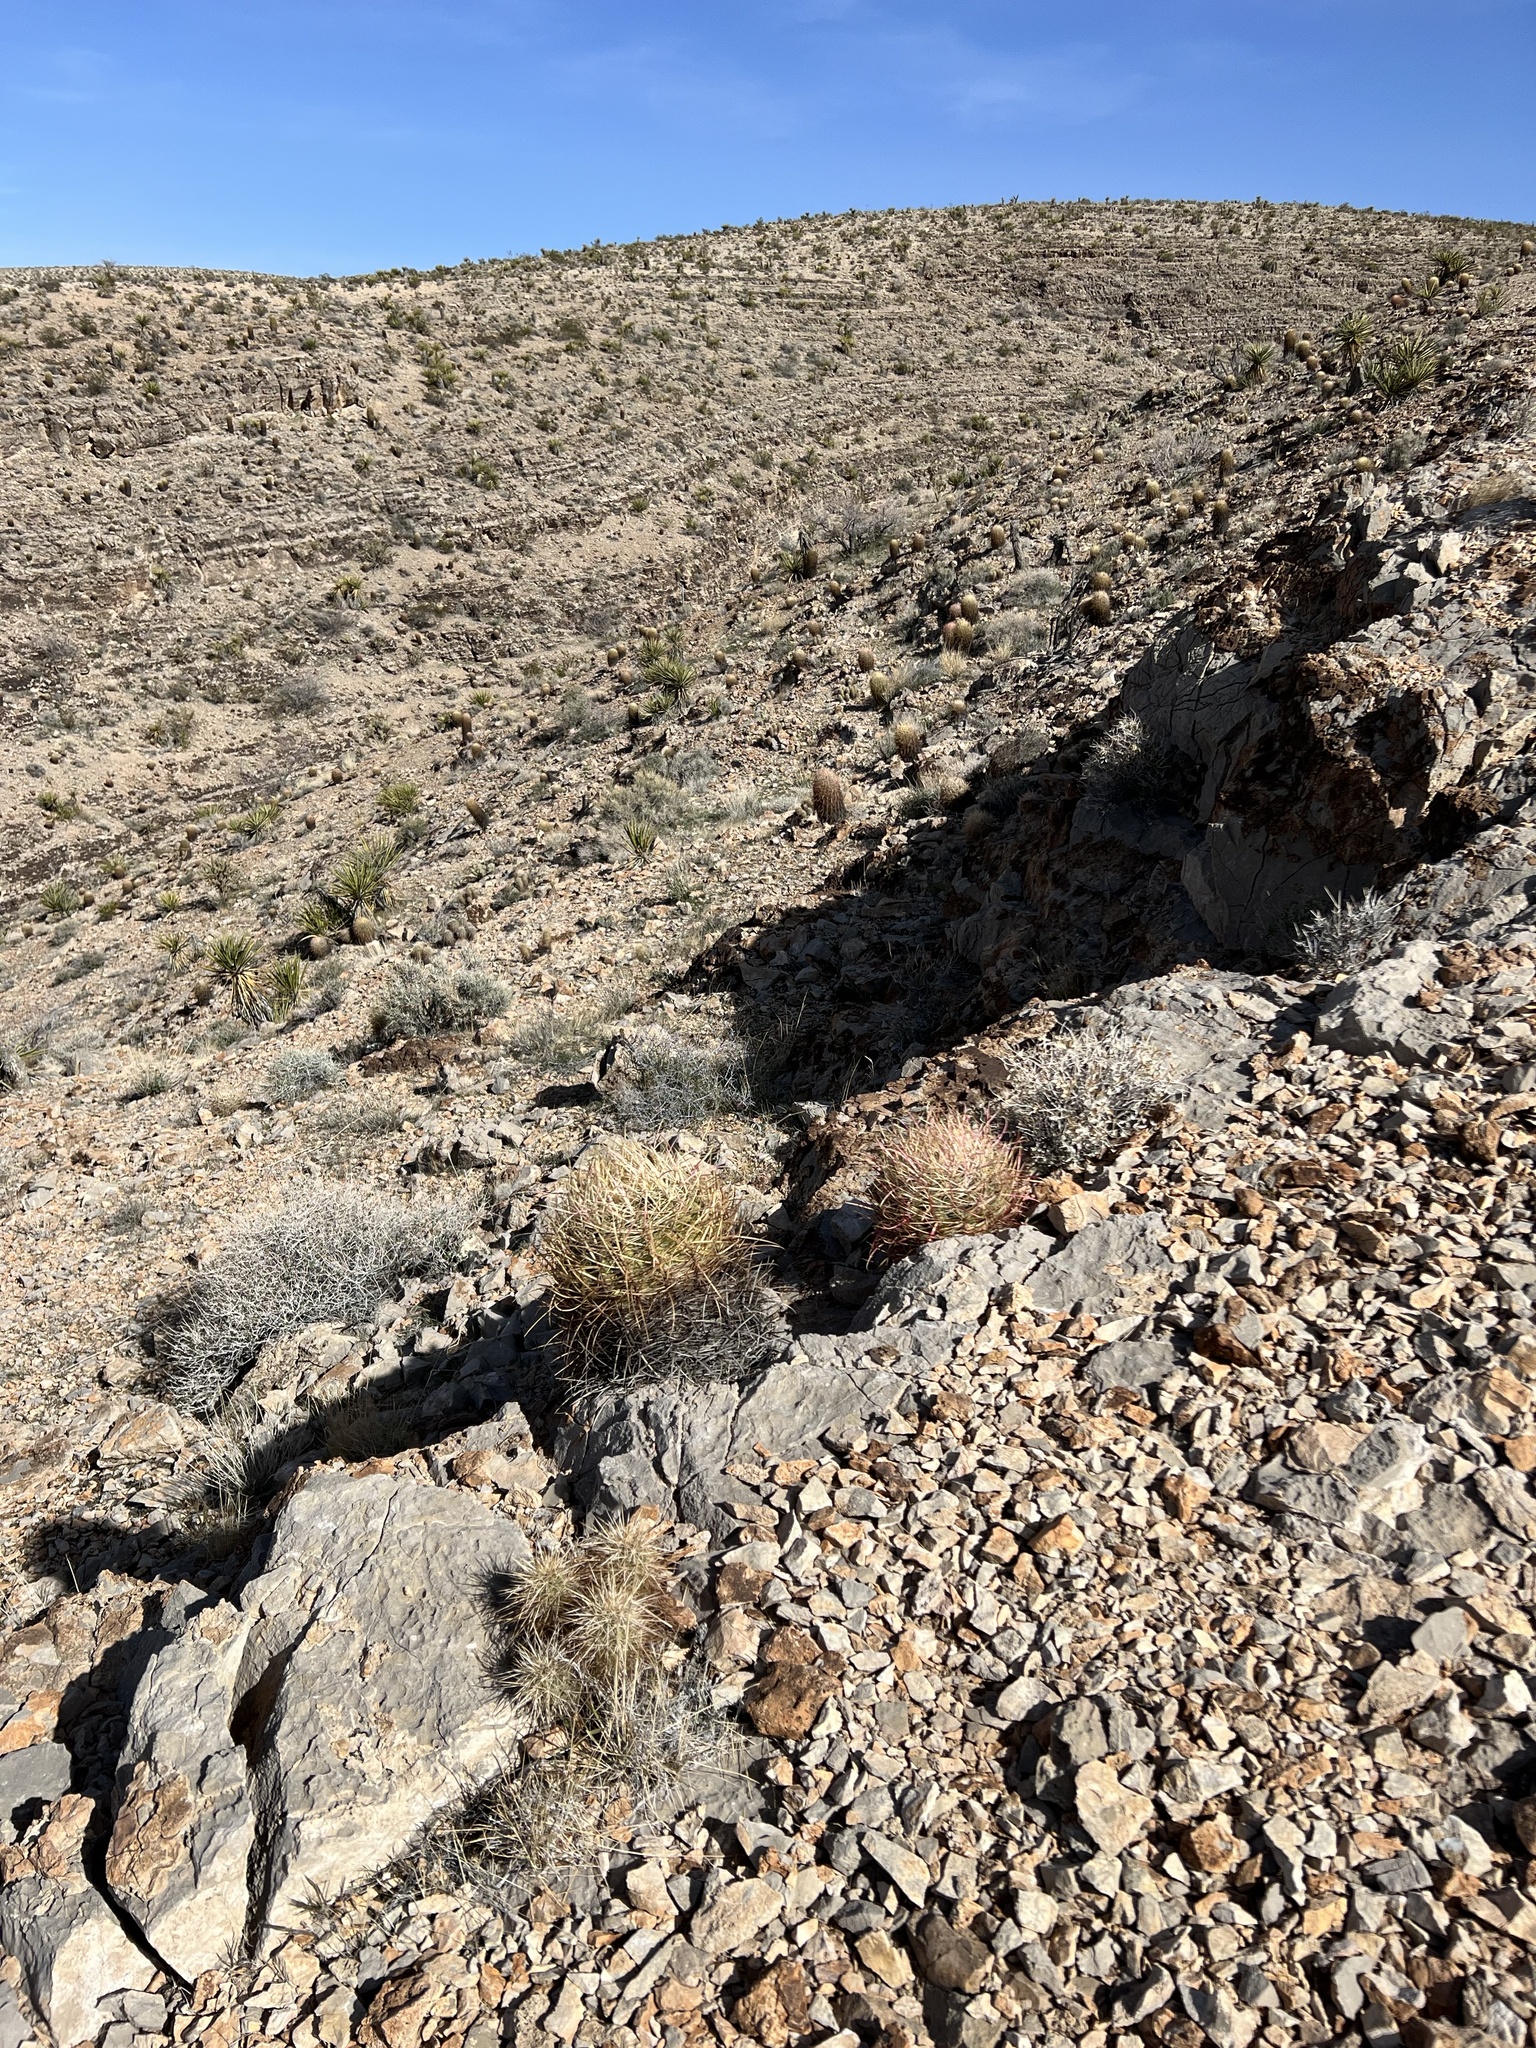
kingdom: Plantae
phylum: Tracheophyta
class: Magnoliopsida
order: Caryophyllales
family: Cactaceae
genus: Ferocactus
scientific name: Ferocactus cylindraceus
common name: California barrel cactus
